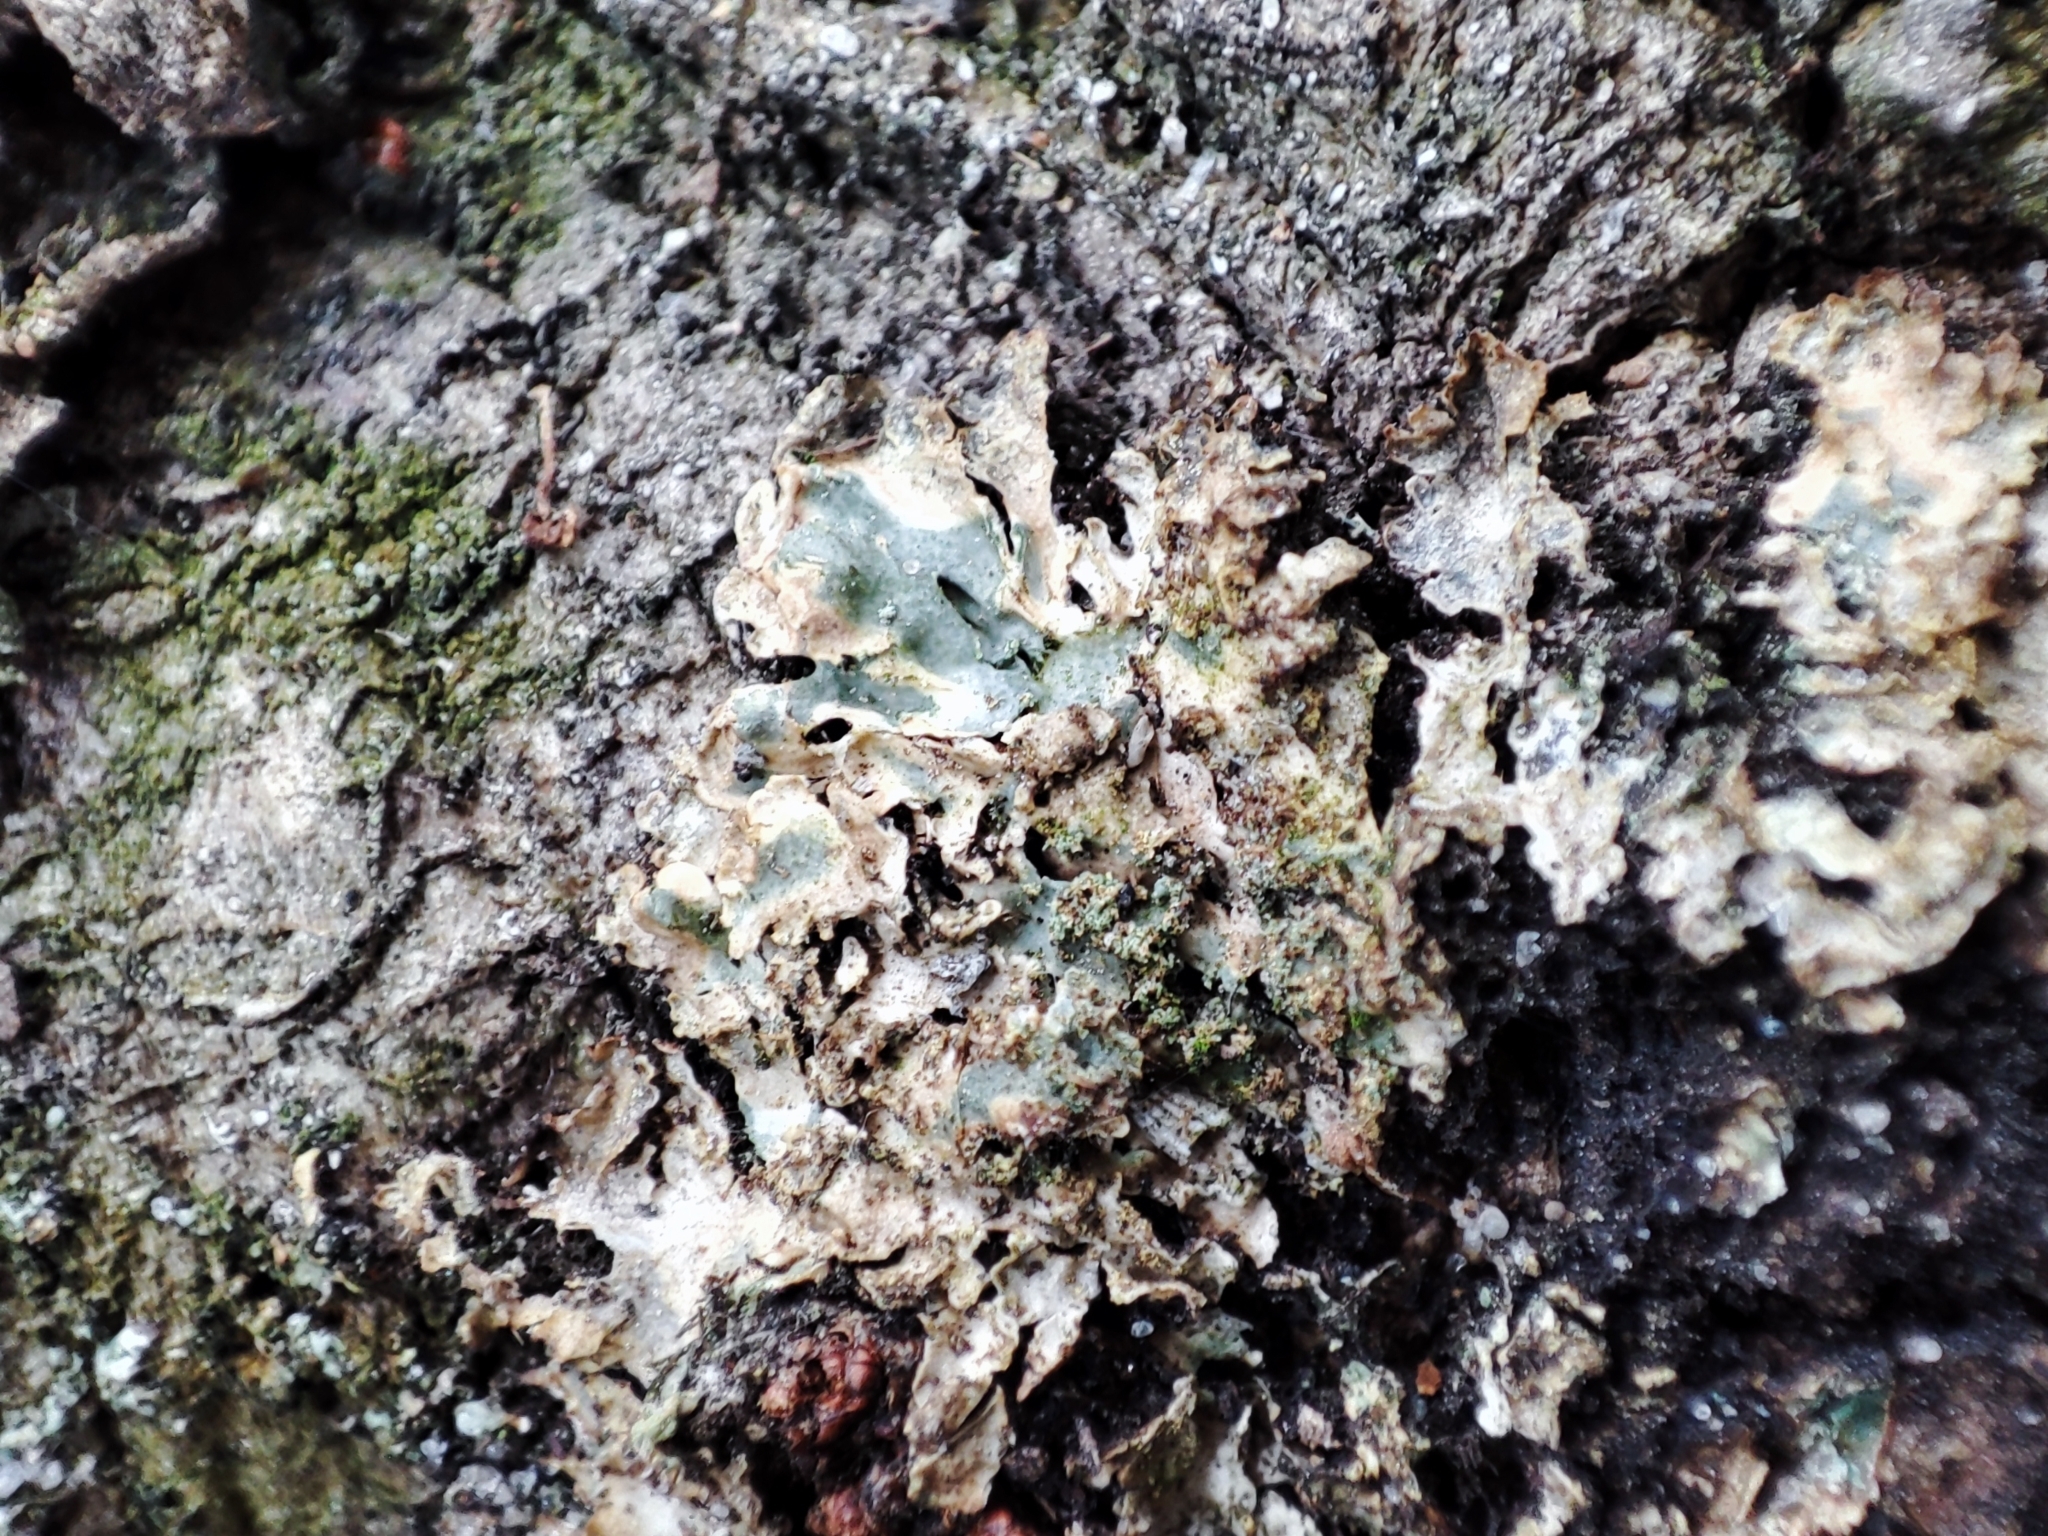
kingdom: Fungi
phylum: Ascomycota
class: Lecanoromycetes
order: Caliciales
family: Physciaceae
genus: Physconia
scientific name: Physconia enteroxantha
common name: Yellow-edged frost lichen
